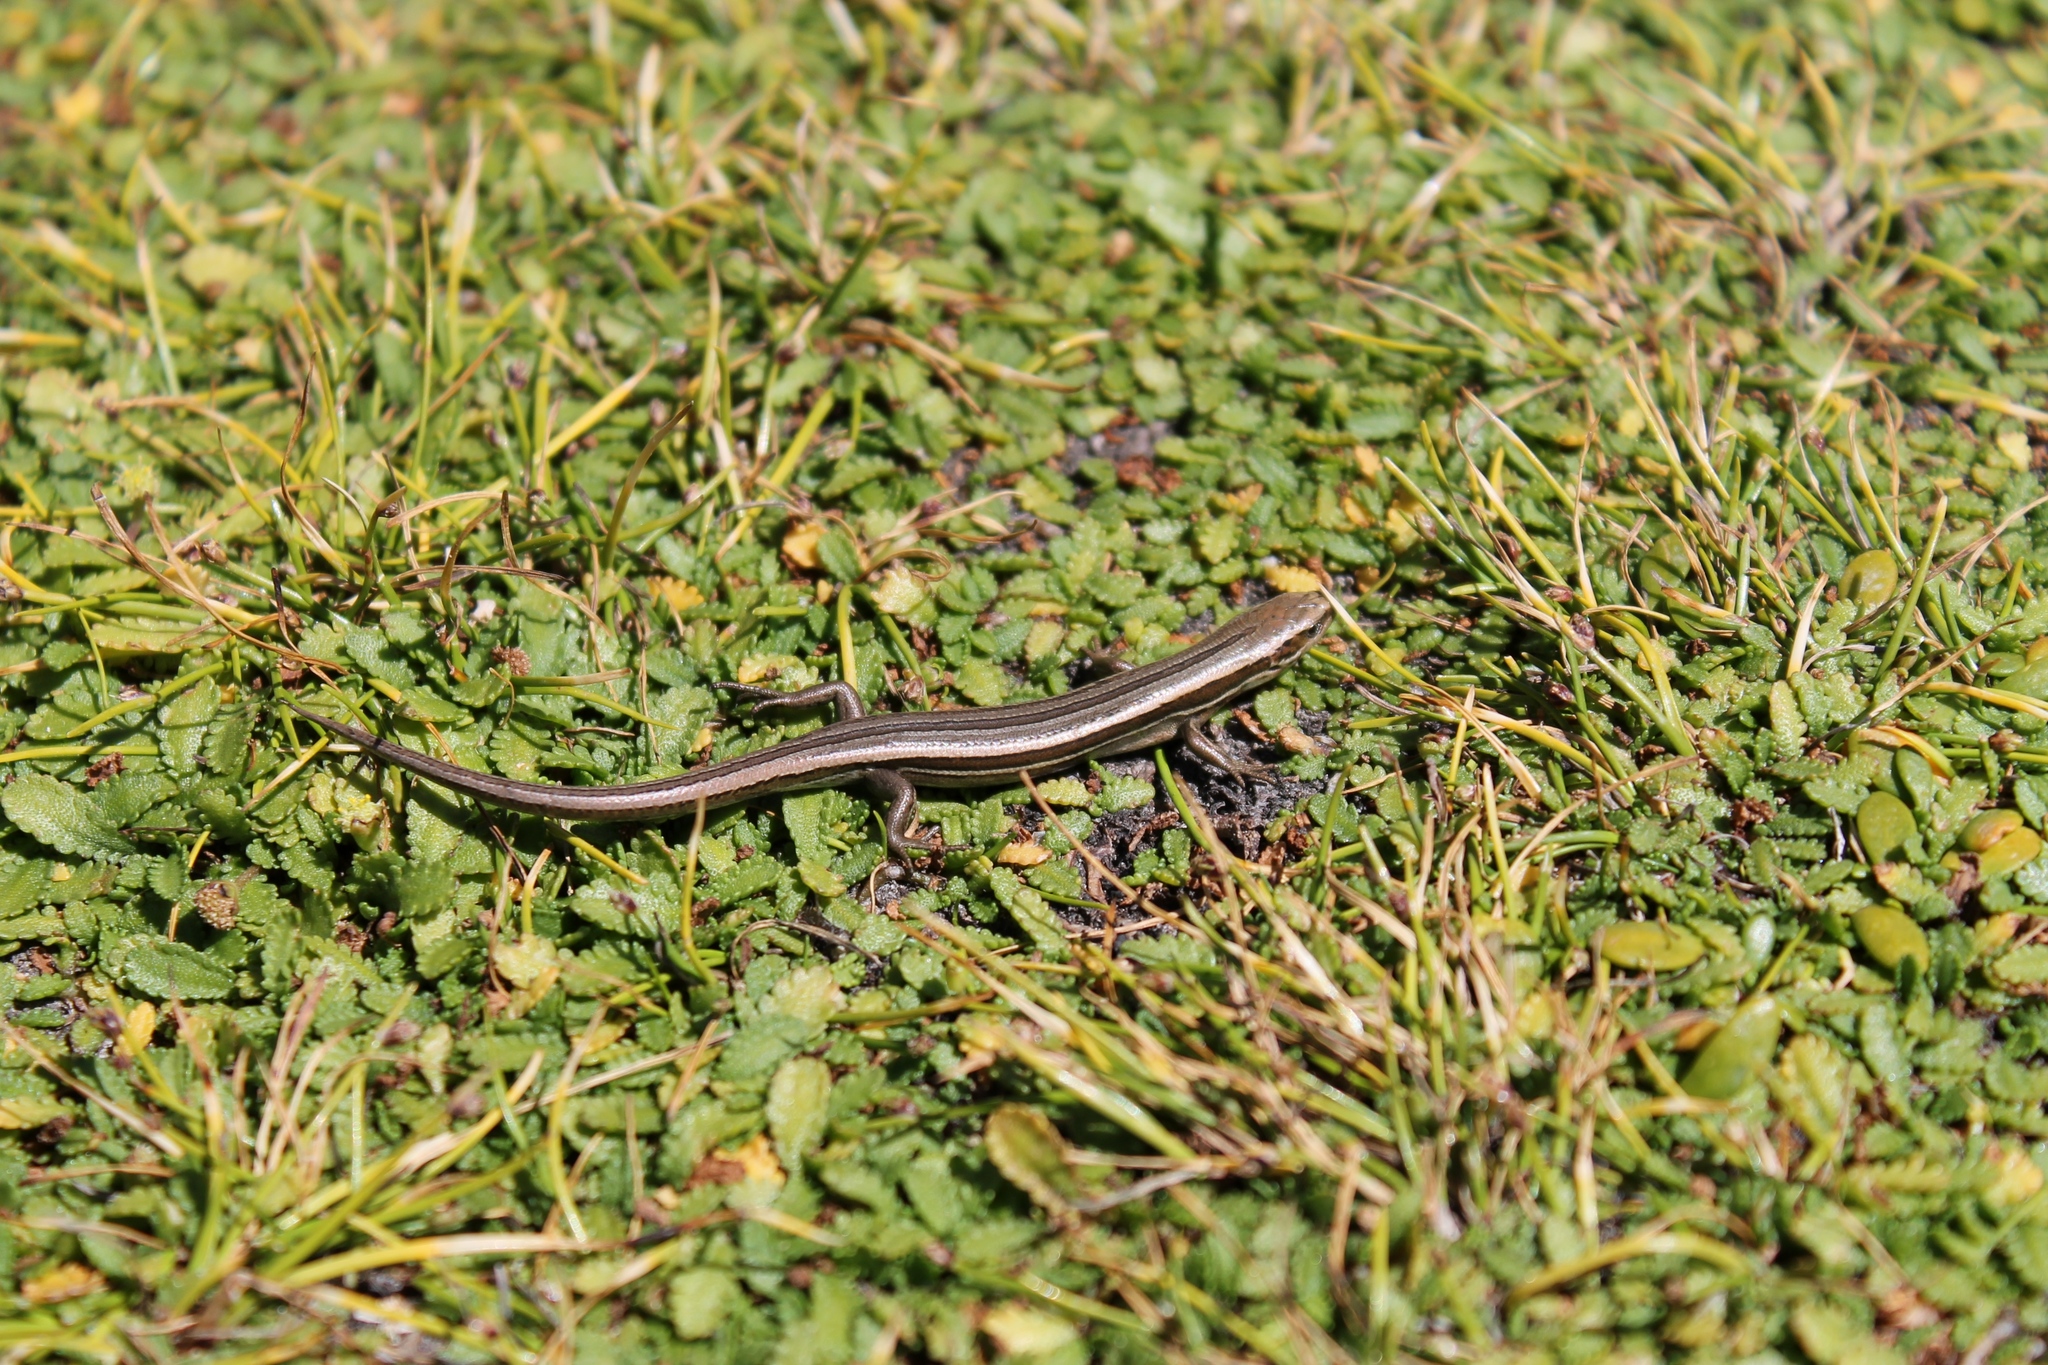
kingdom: Animalia
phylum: Chordata
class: Squamata
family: Scincidae
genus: Oligosoma
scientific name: Oligosoma polychroma
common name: Common new zealand skink
